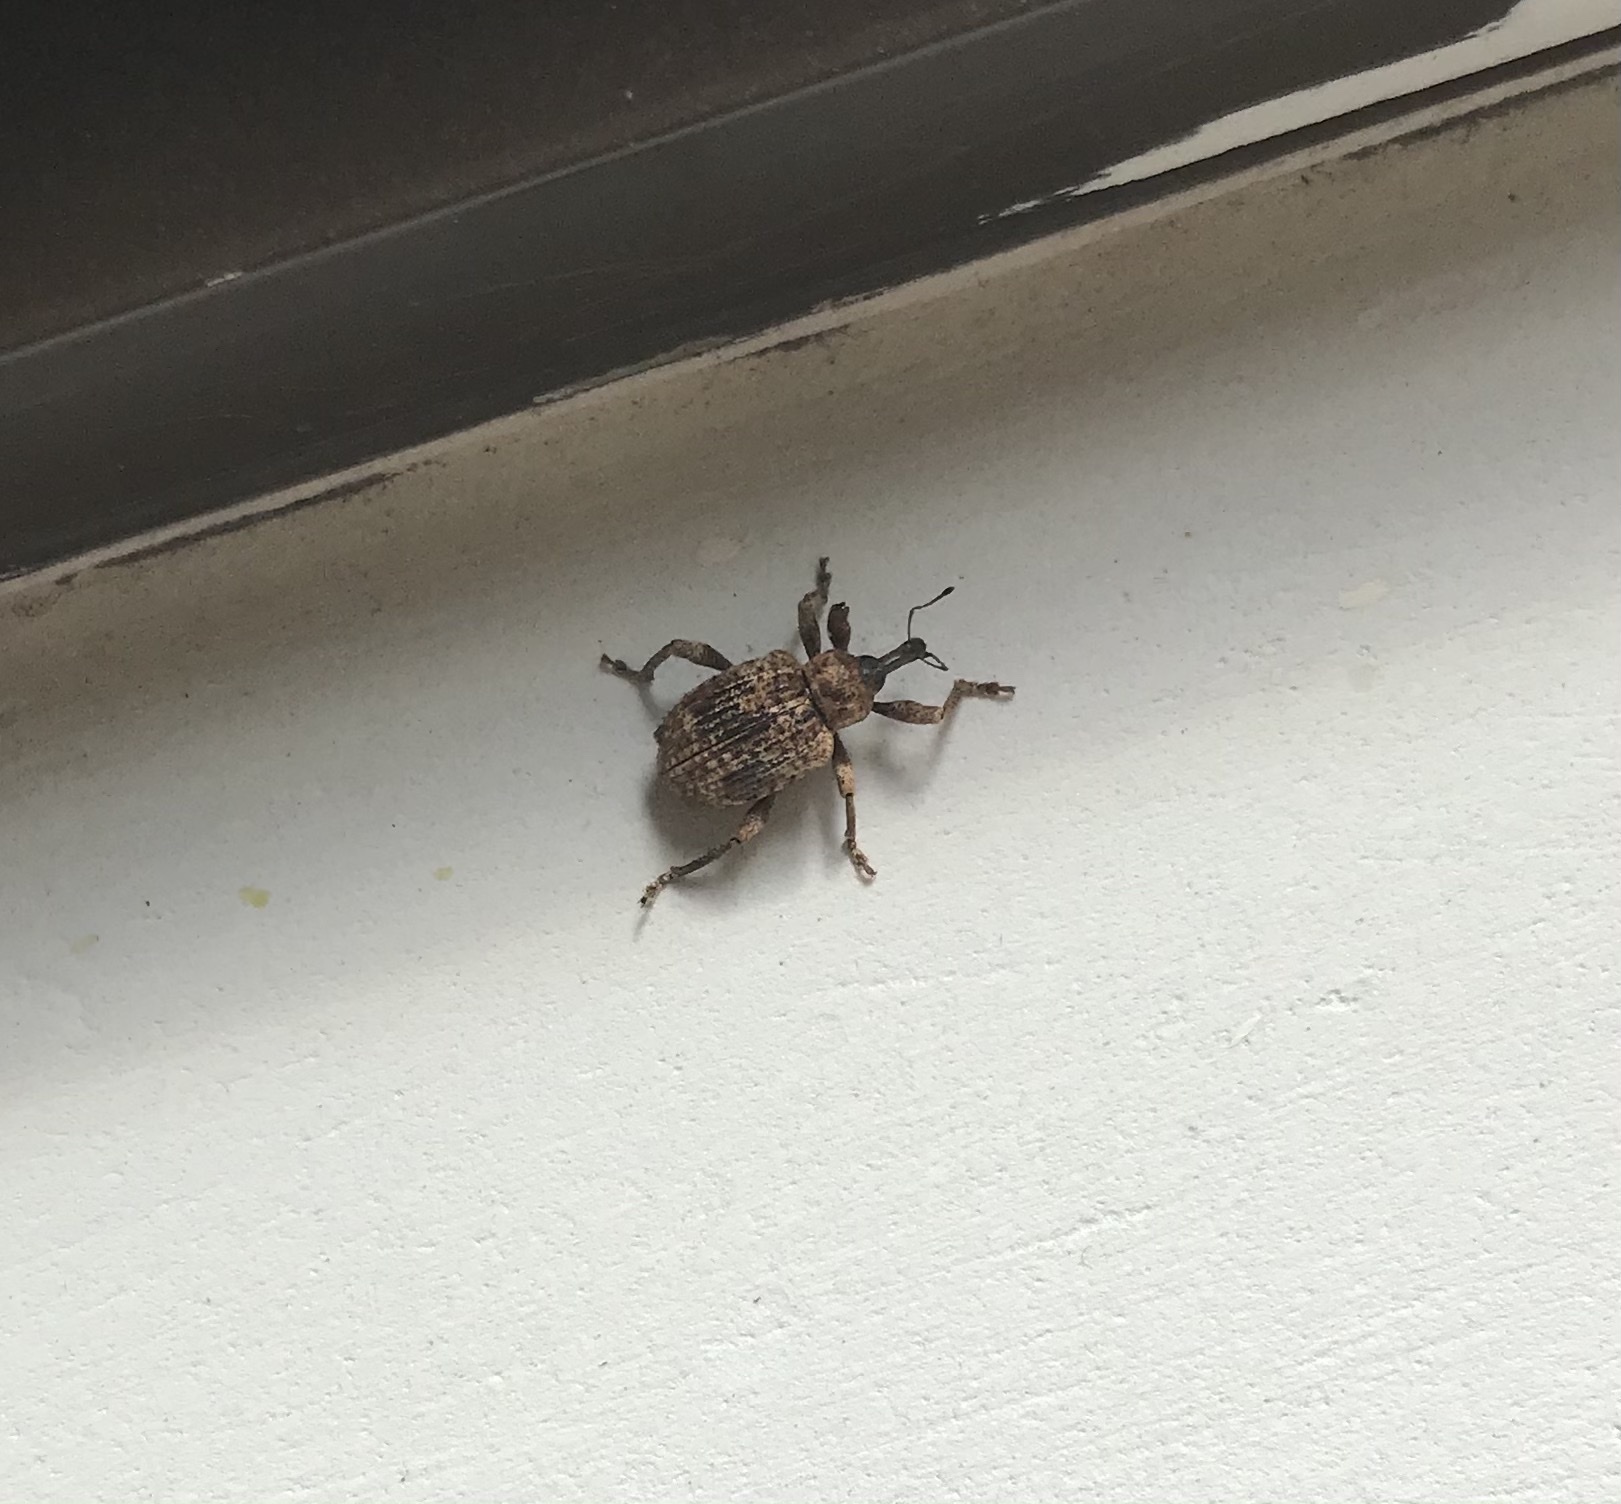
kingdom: Animalia
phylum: Arthropoda
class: Insecta
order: Coleoptera
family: Curculionidae
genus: Phelypera
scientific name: Phelypera
